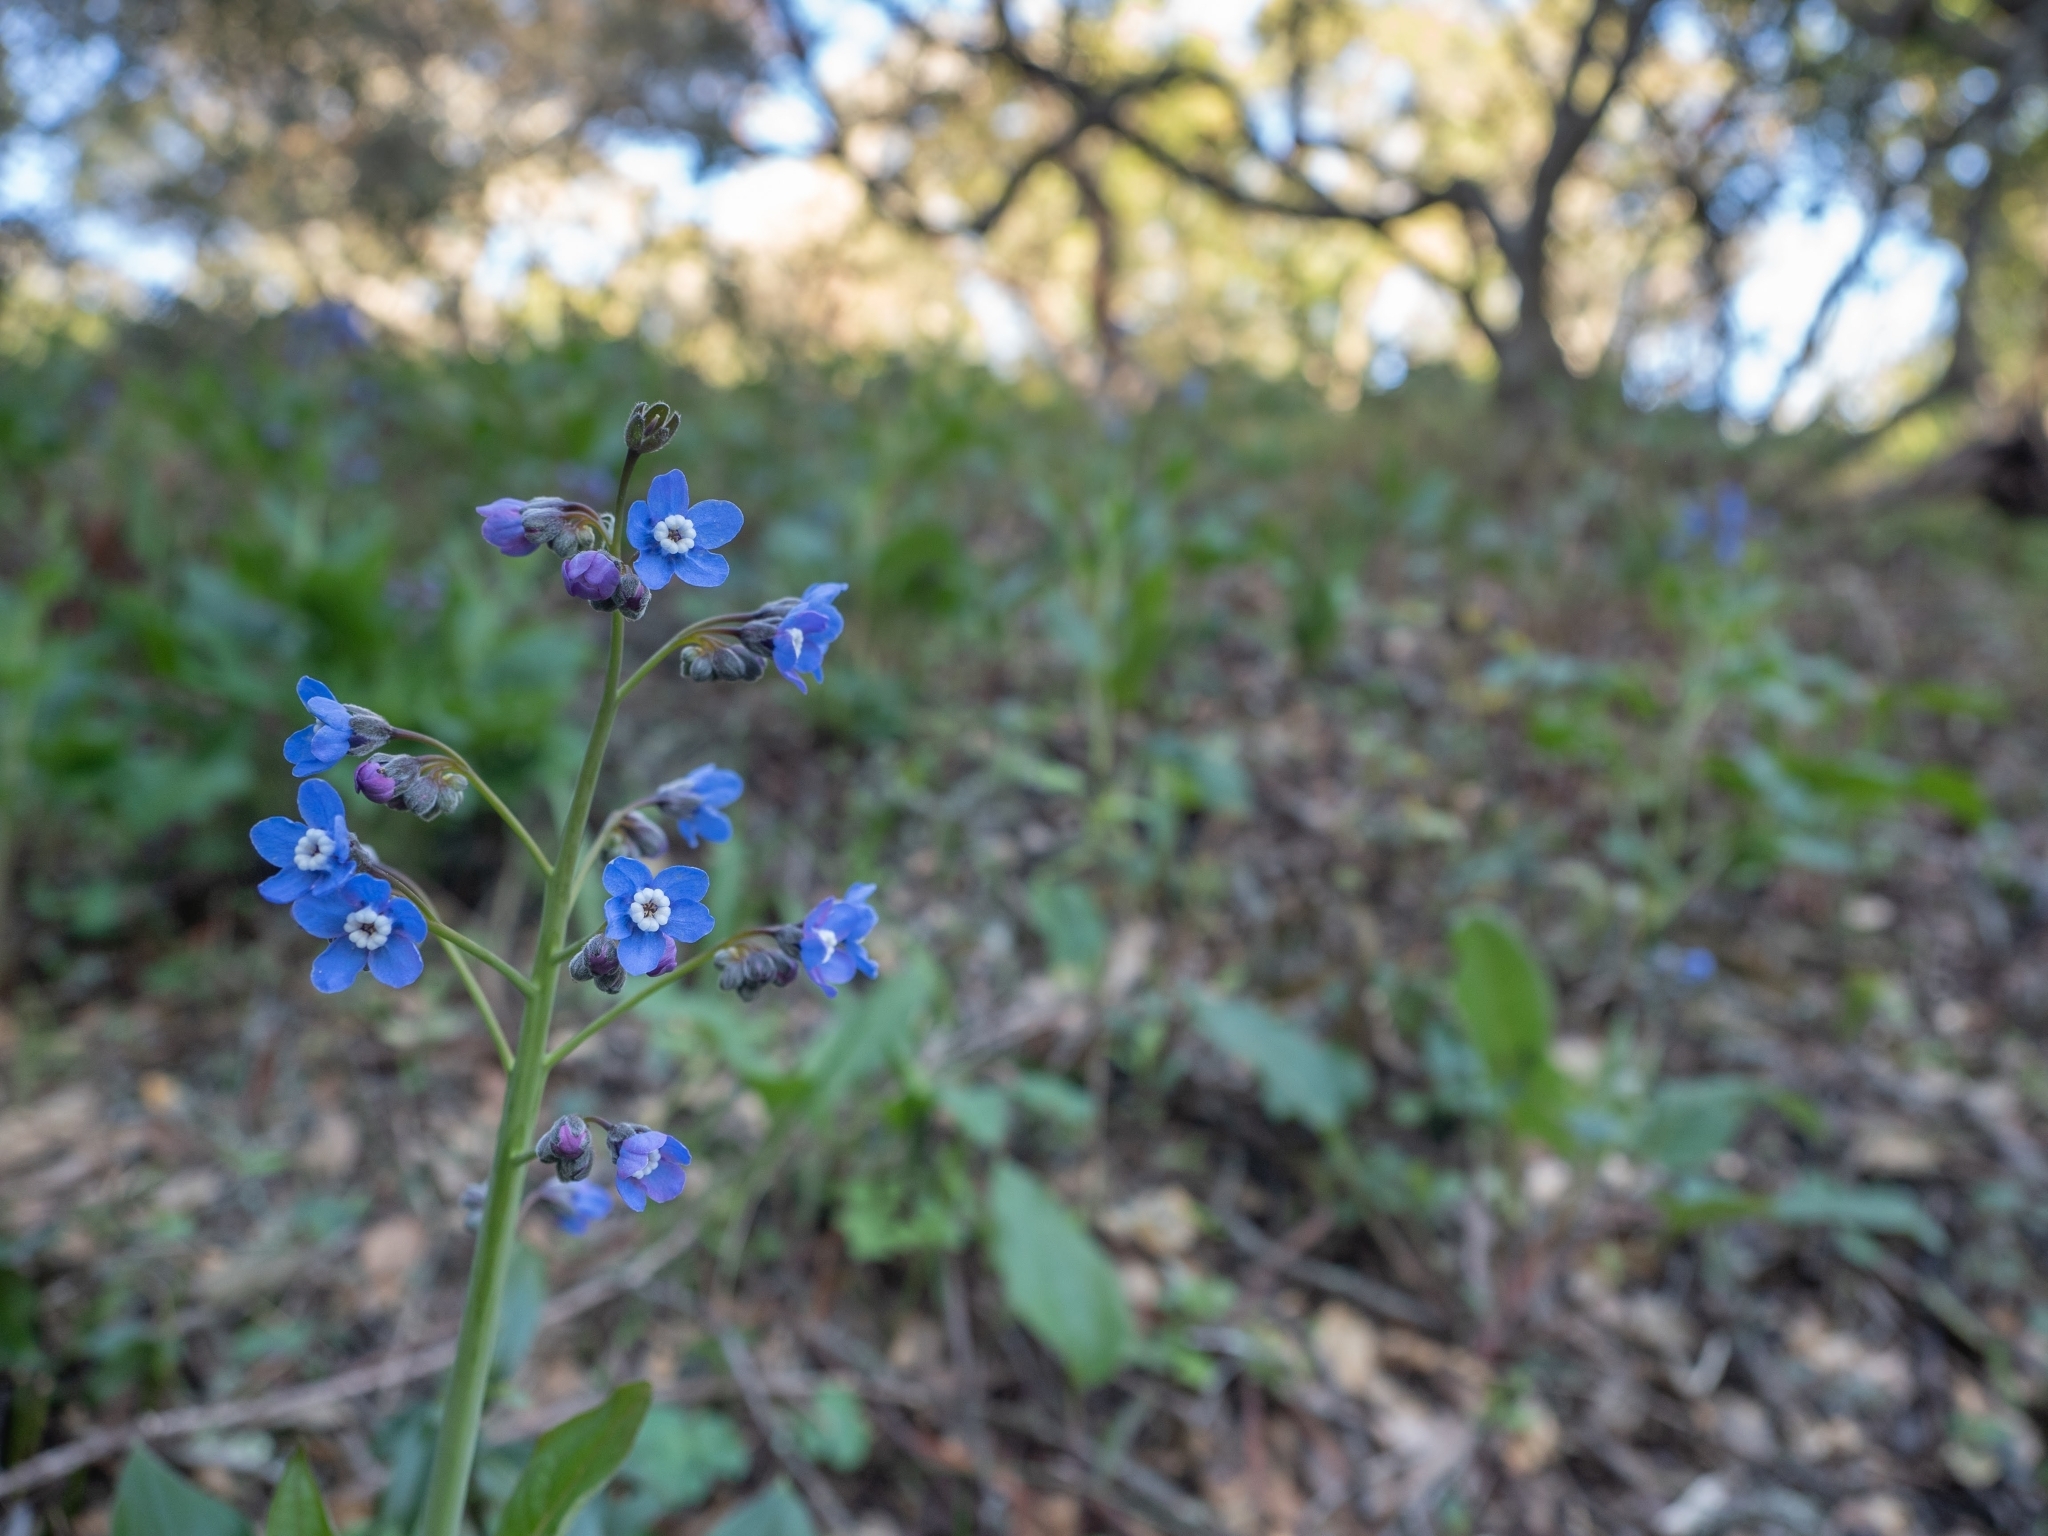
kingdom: Plantae
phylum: Tracheophyta
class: Magnoliopsida
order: Boraginales
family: Boraginaceae
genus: Adelinia
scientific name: Adelinia grande
